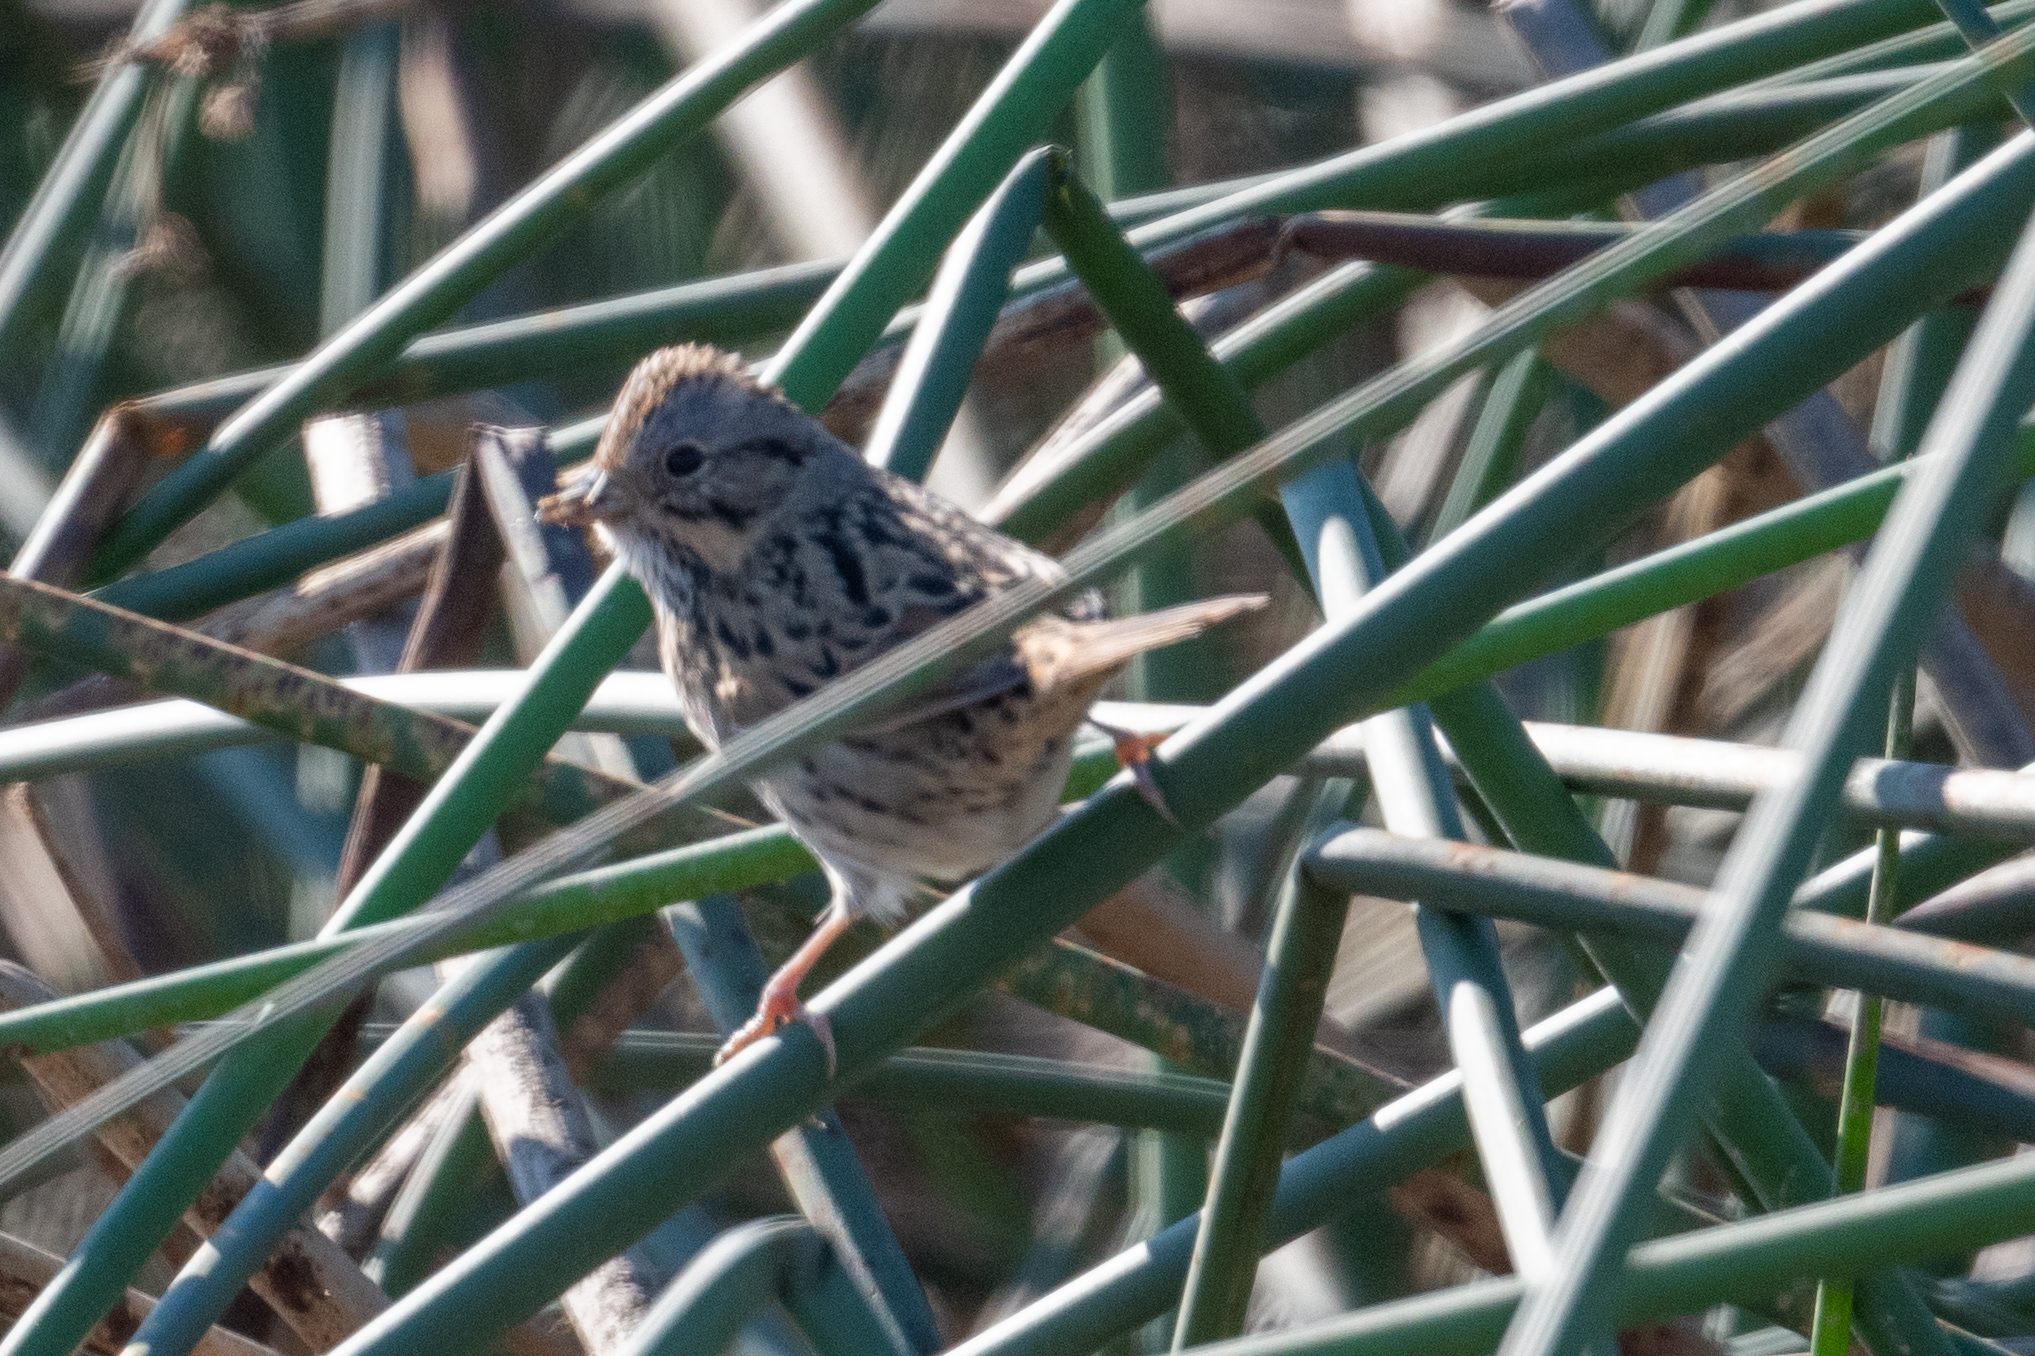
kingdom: Animalia
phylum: Chordata
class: Aves
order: Passeriformes
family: Passerellidae
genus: Melospiza
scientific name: Melospiza lincolnii
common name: Lincoln's sparrow
